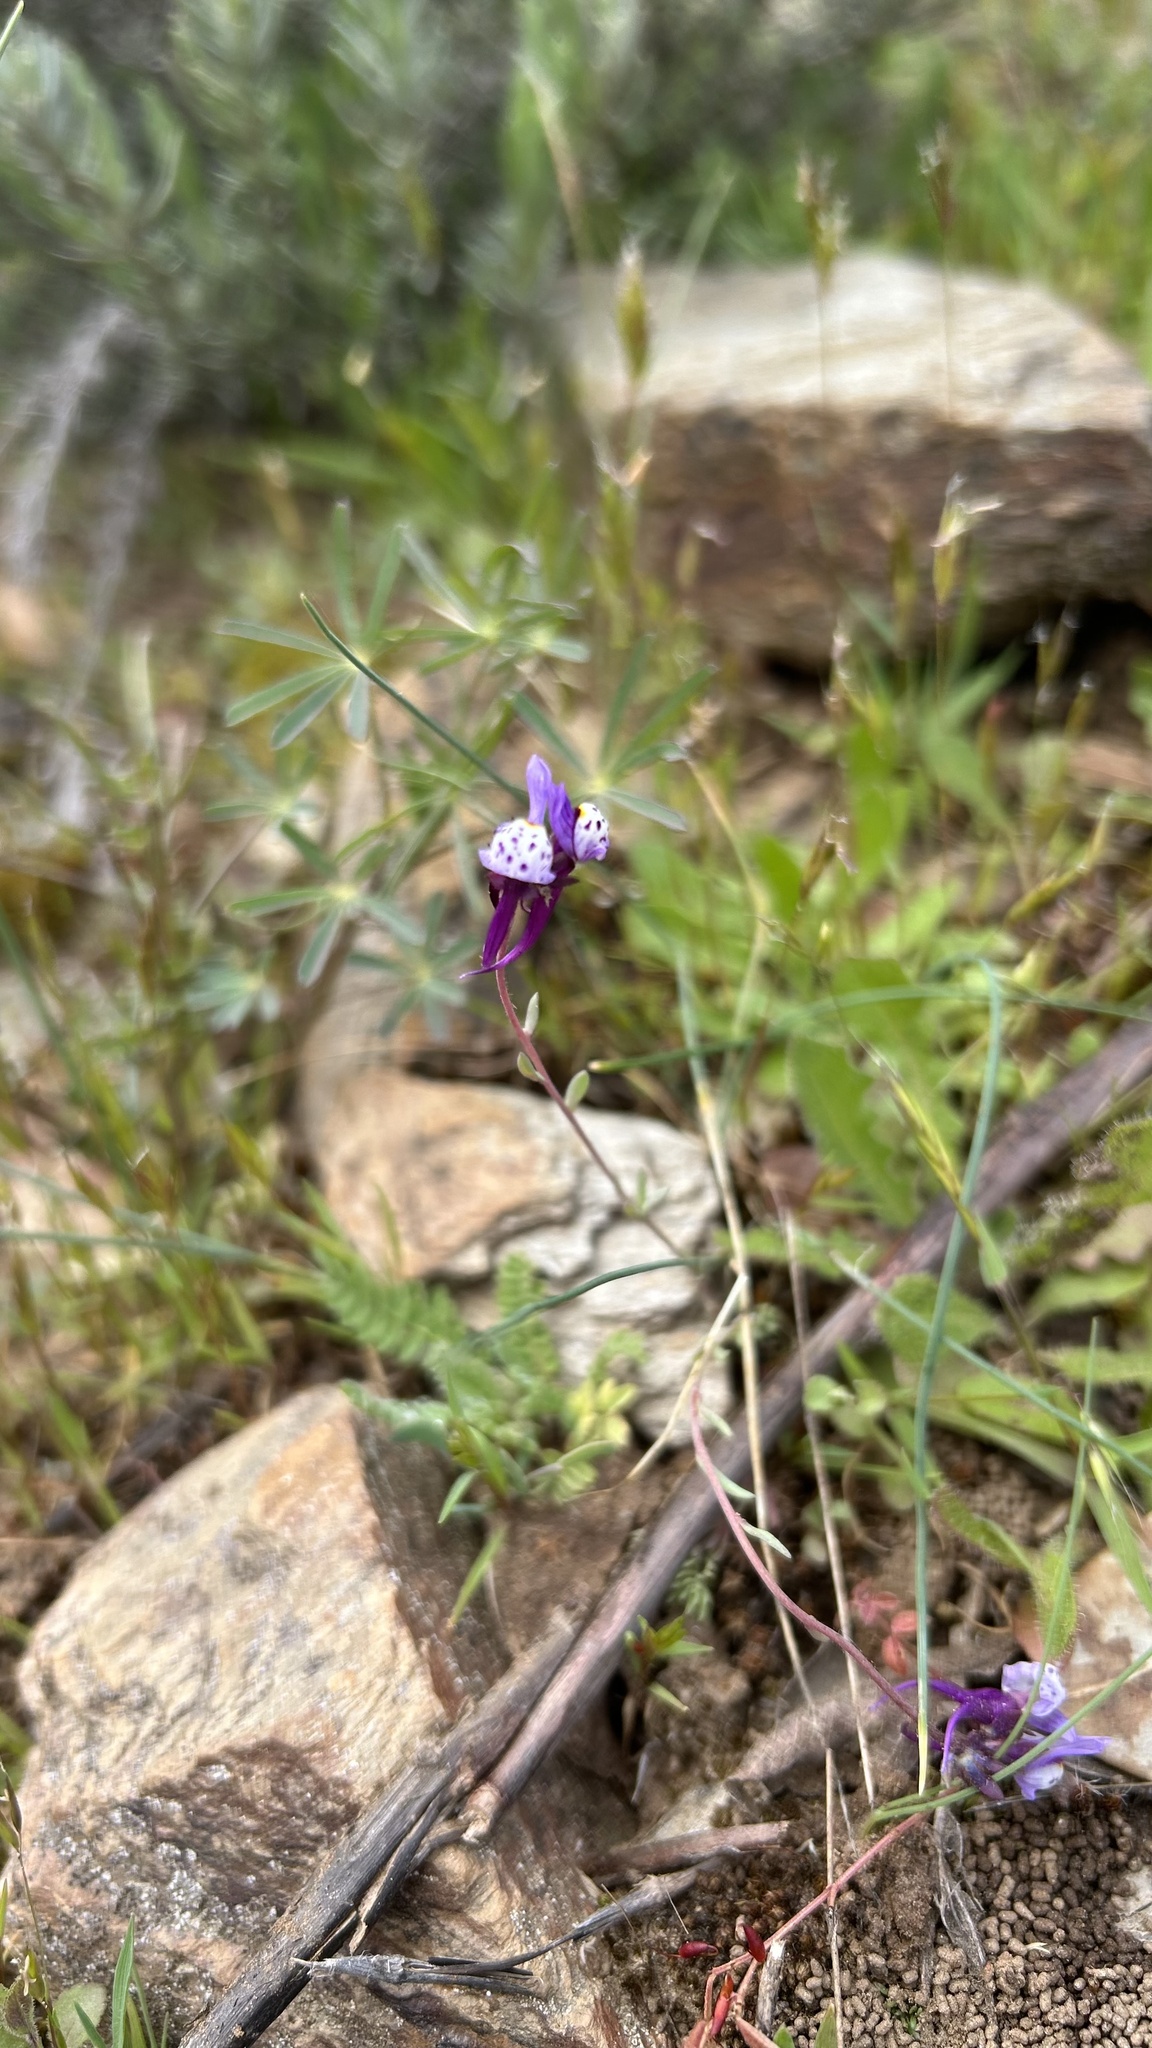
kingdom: Plantae
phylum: Tracheophyta
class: Magnoliopsida
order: Lamiales
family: Plantaginaceae
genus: Linaria
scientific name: Linaria amethystea
